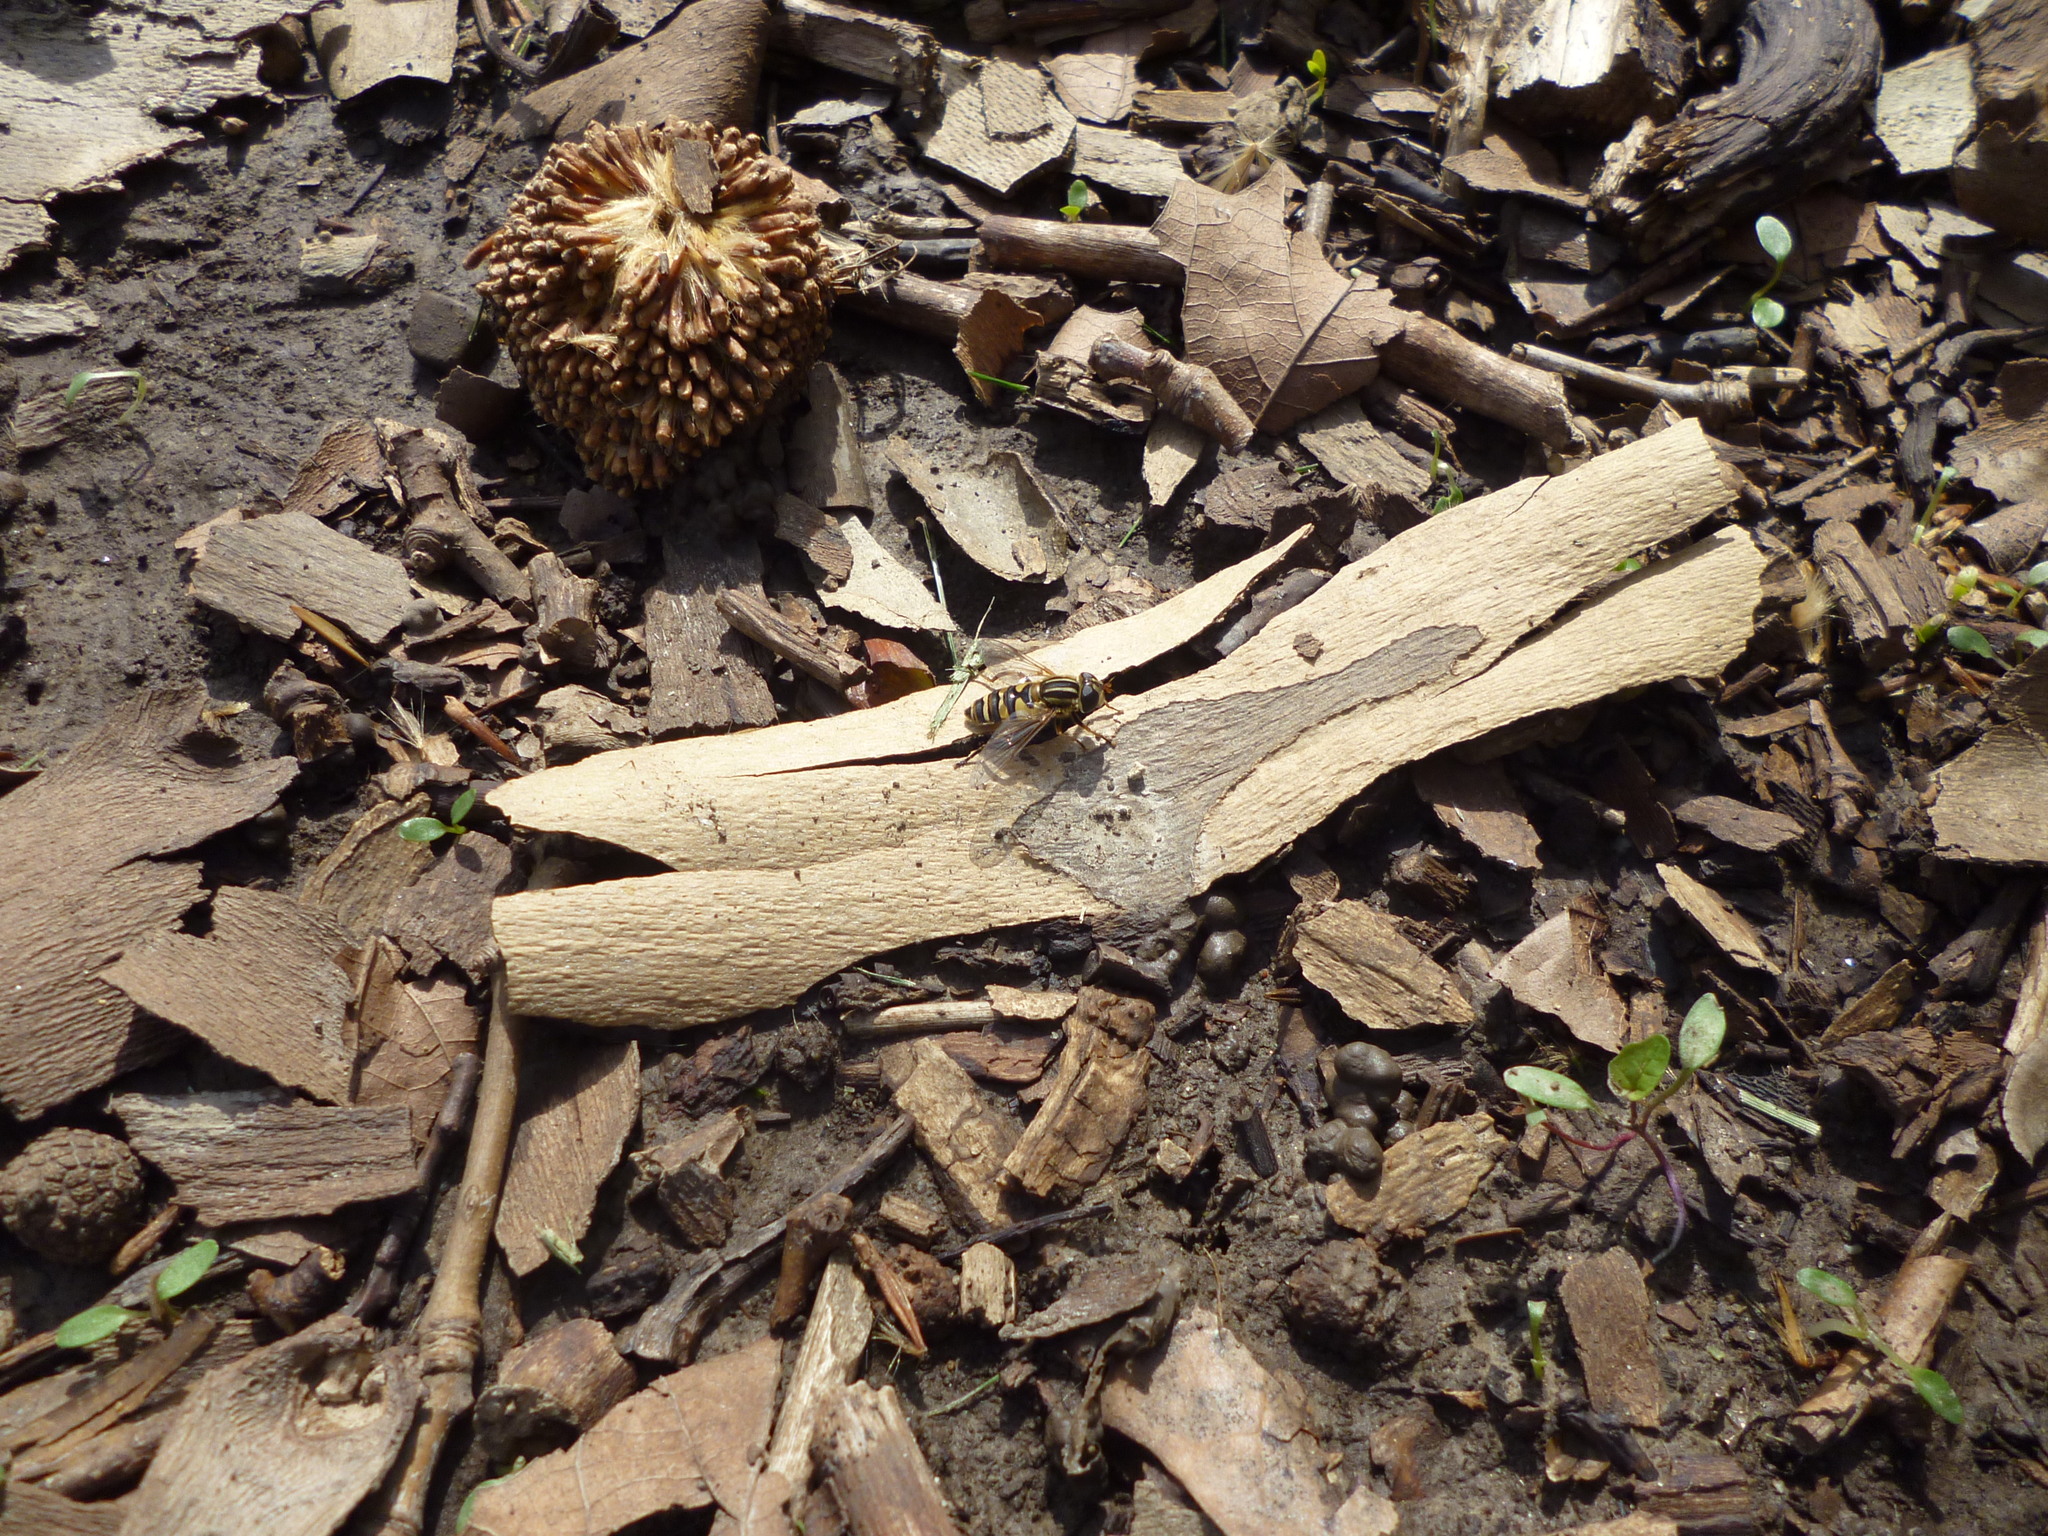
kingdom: Plantae
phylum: Tracheophyta
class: Magnoliopsida
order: Proteales
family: Platanaceae
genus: Platanus
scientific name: Platanus occidentalis
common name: American sycamore
